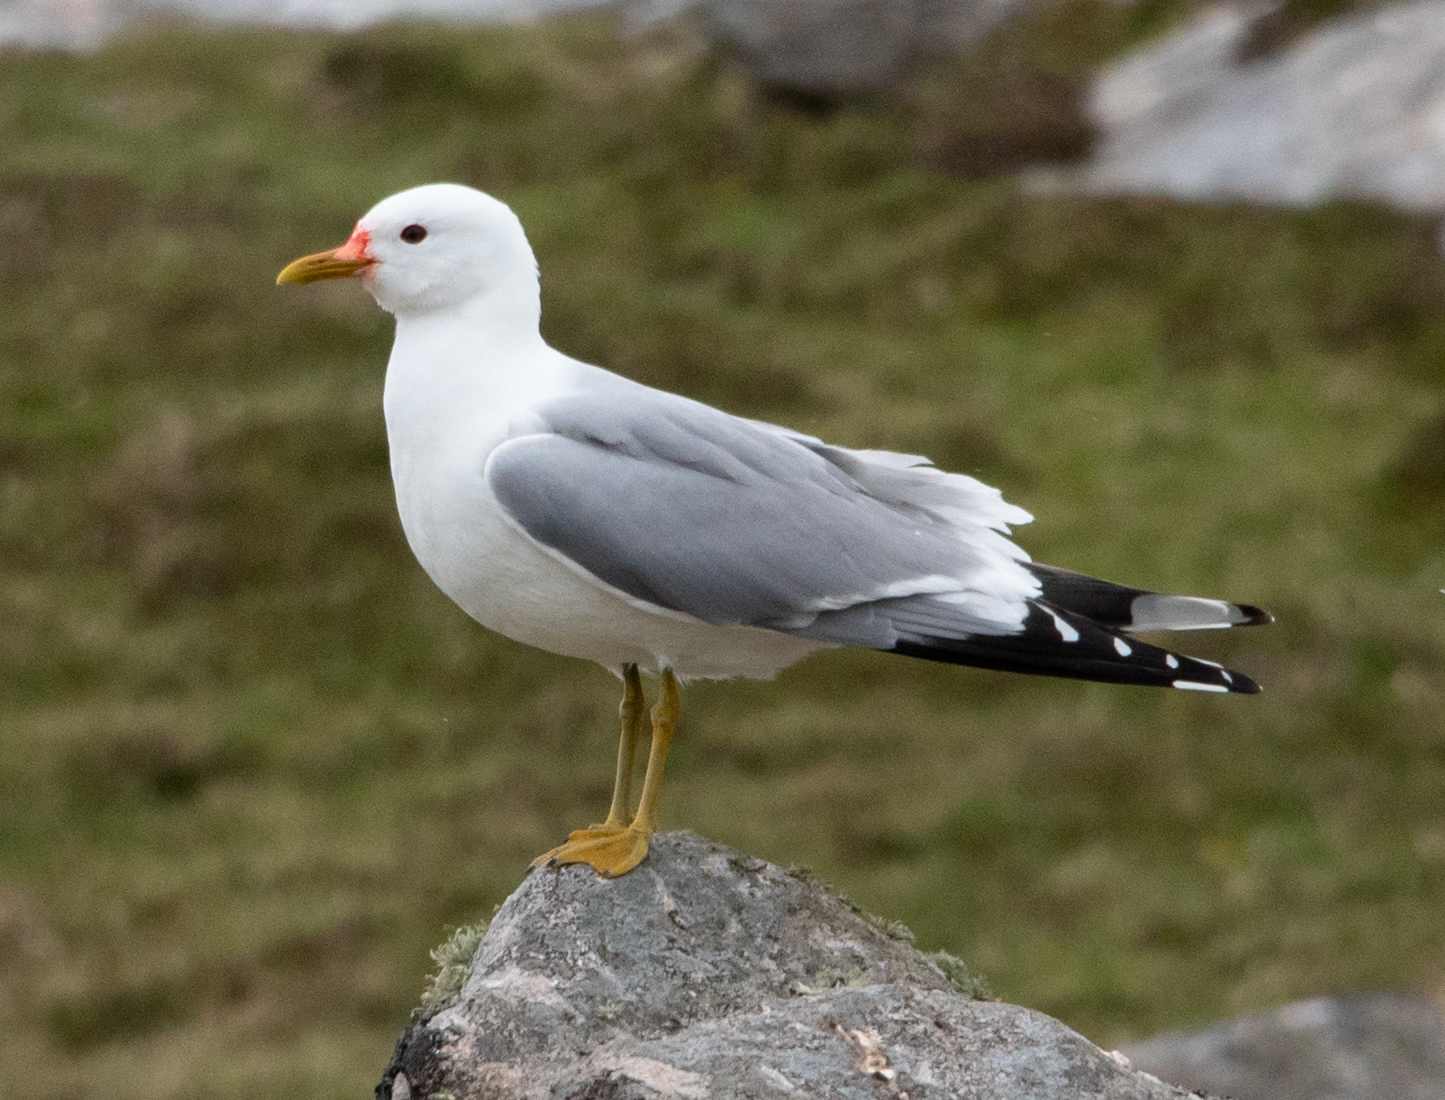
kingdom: Animalia
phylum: Chordata
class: Aves
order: Charadriiformes
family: Laridae
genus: Larus
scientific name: Larus canus
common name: Mew gull
